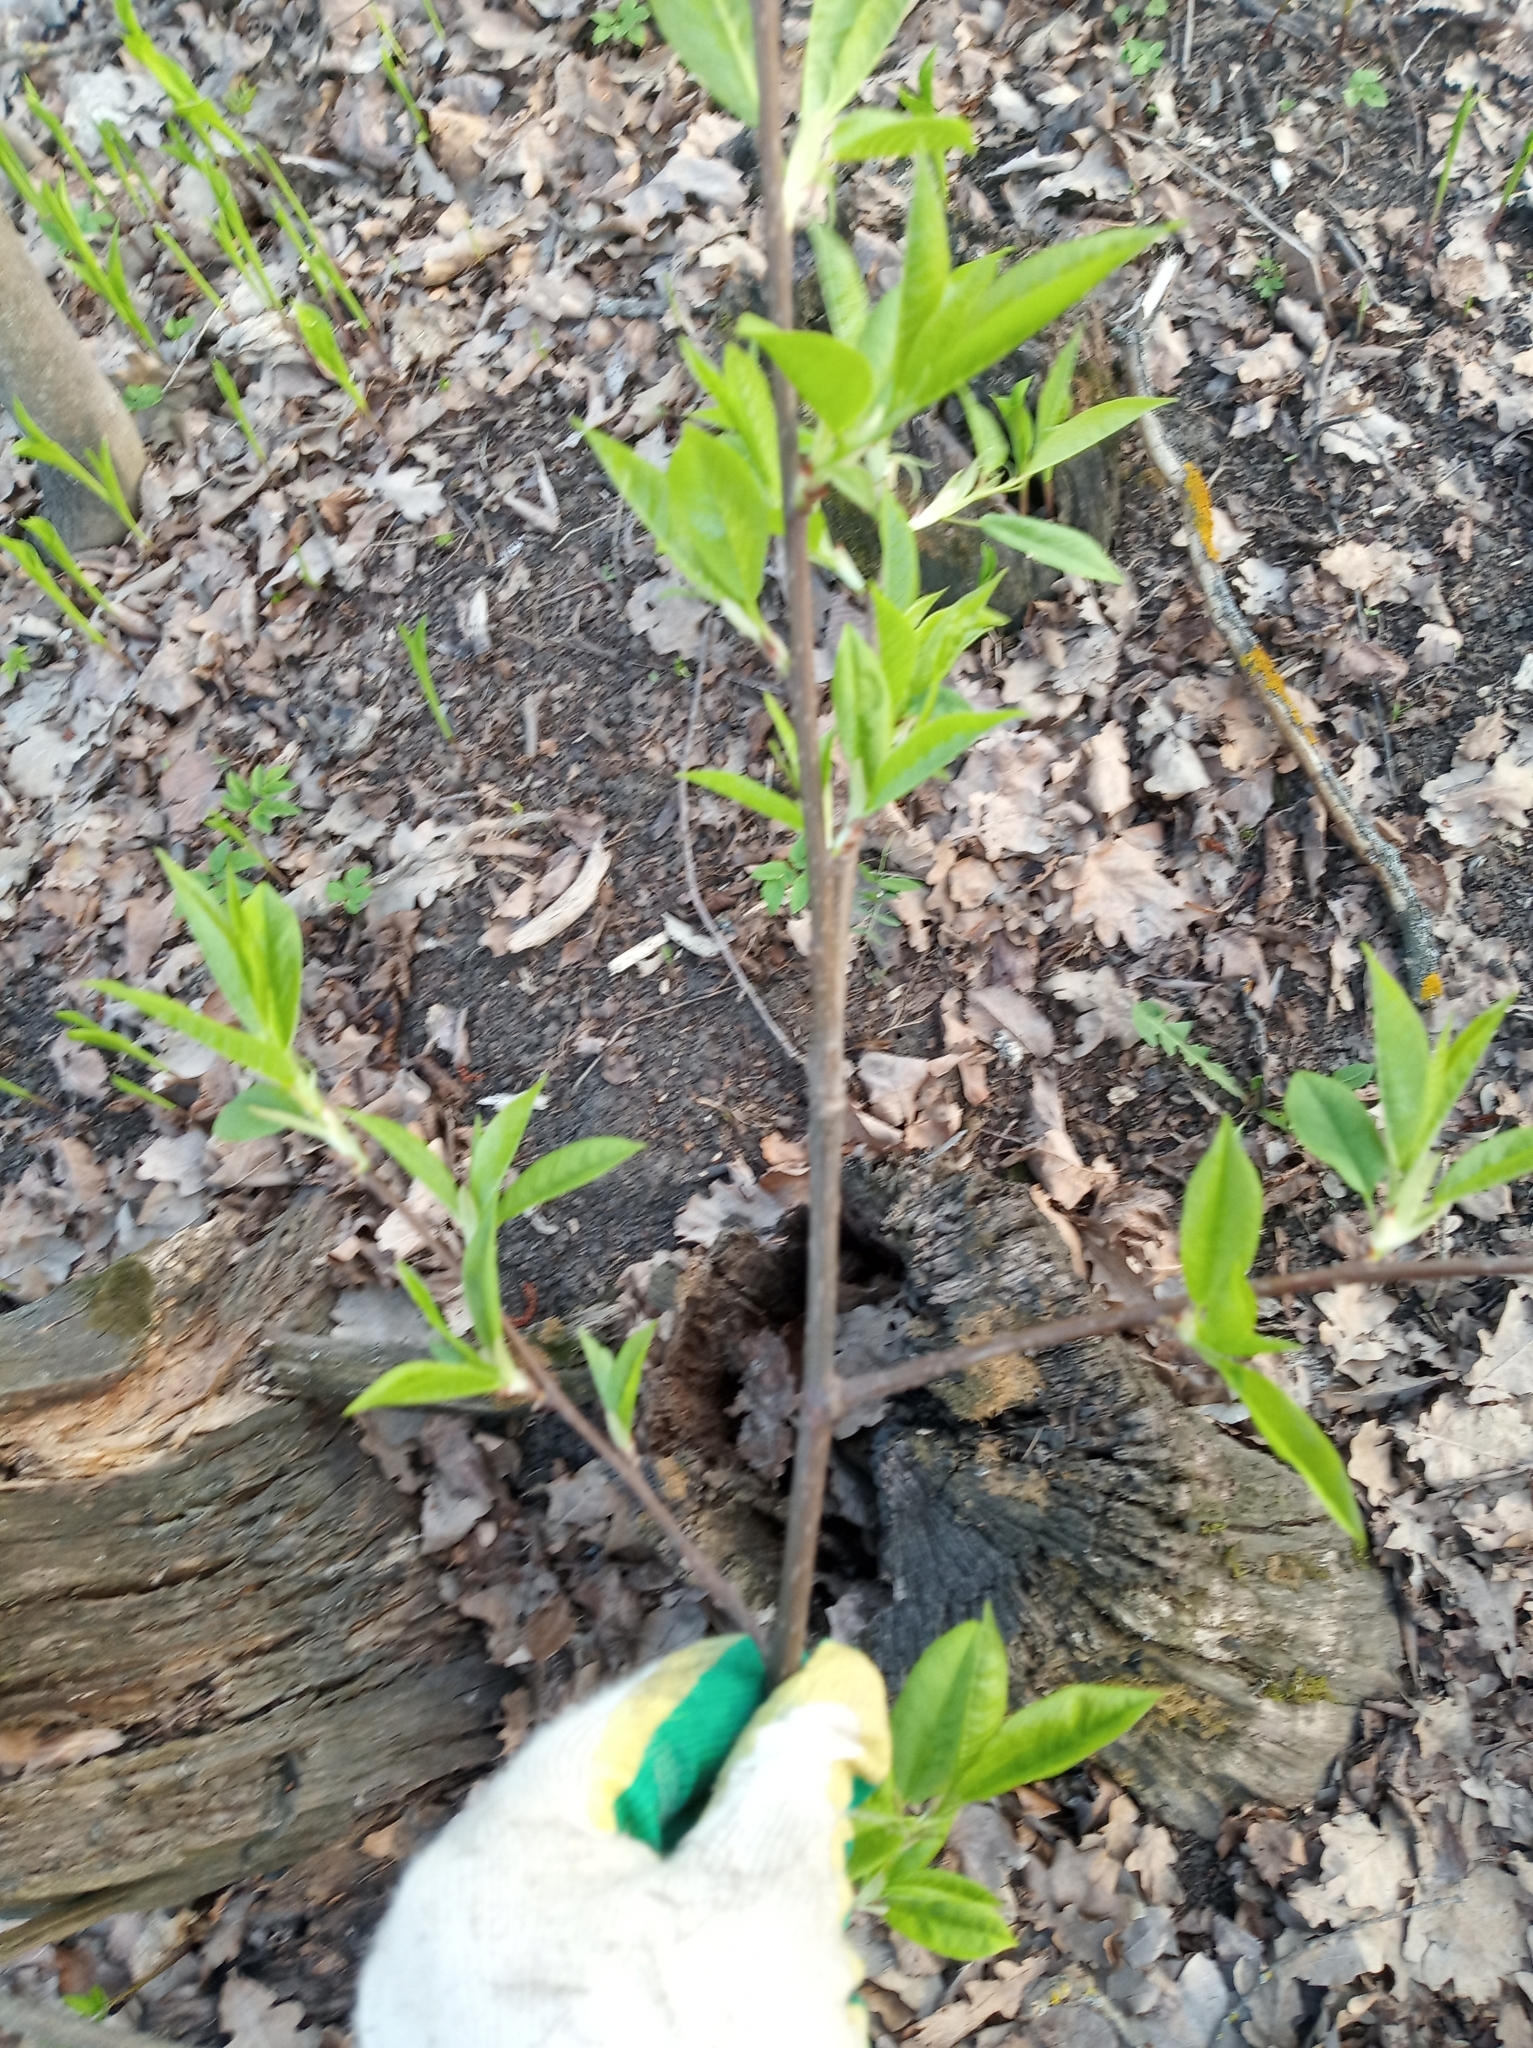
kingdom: Plantae
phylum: Tracheophyta
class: Magnoliopsida
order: Rosales
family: Rosaceae
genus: Prunus
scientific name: Prunus padus
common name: Bird cherry
